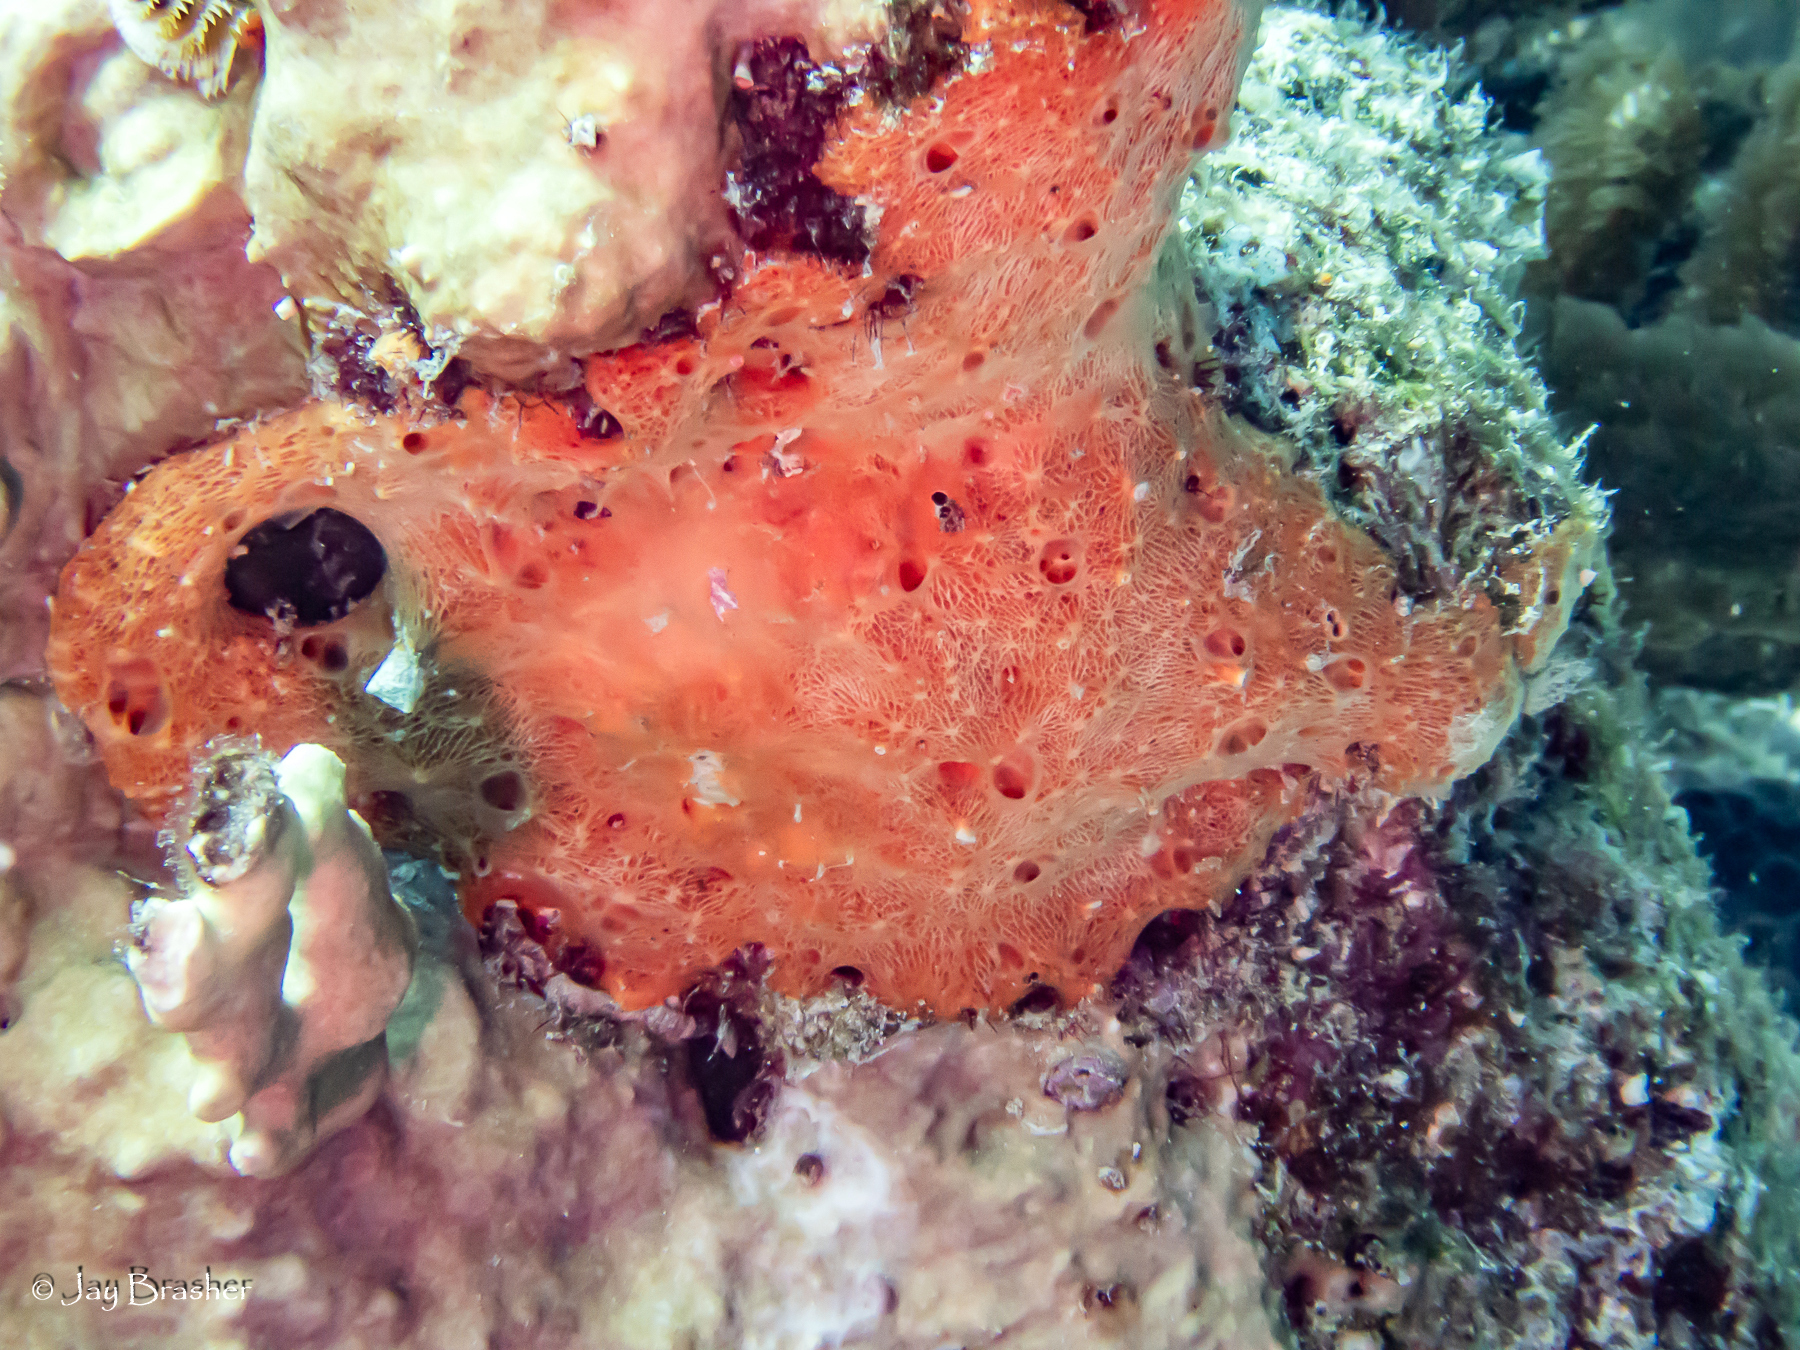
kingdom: Animalia
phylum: Porifera
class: Demospongiae
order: Scopalinida
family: Scopalinidae
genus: Scopalina
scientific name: Scopalina ruetzleri
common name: Orange lumpy encrusting sponge
